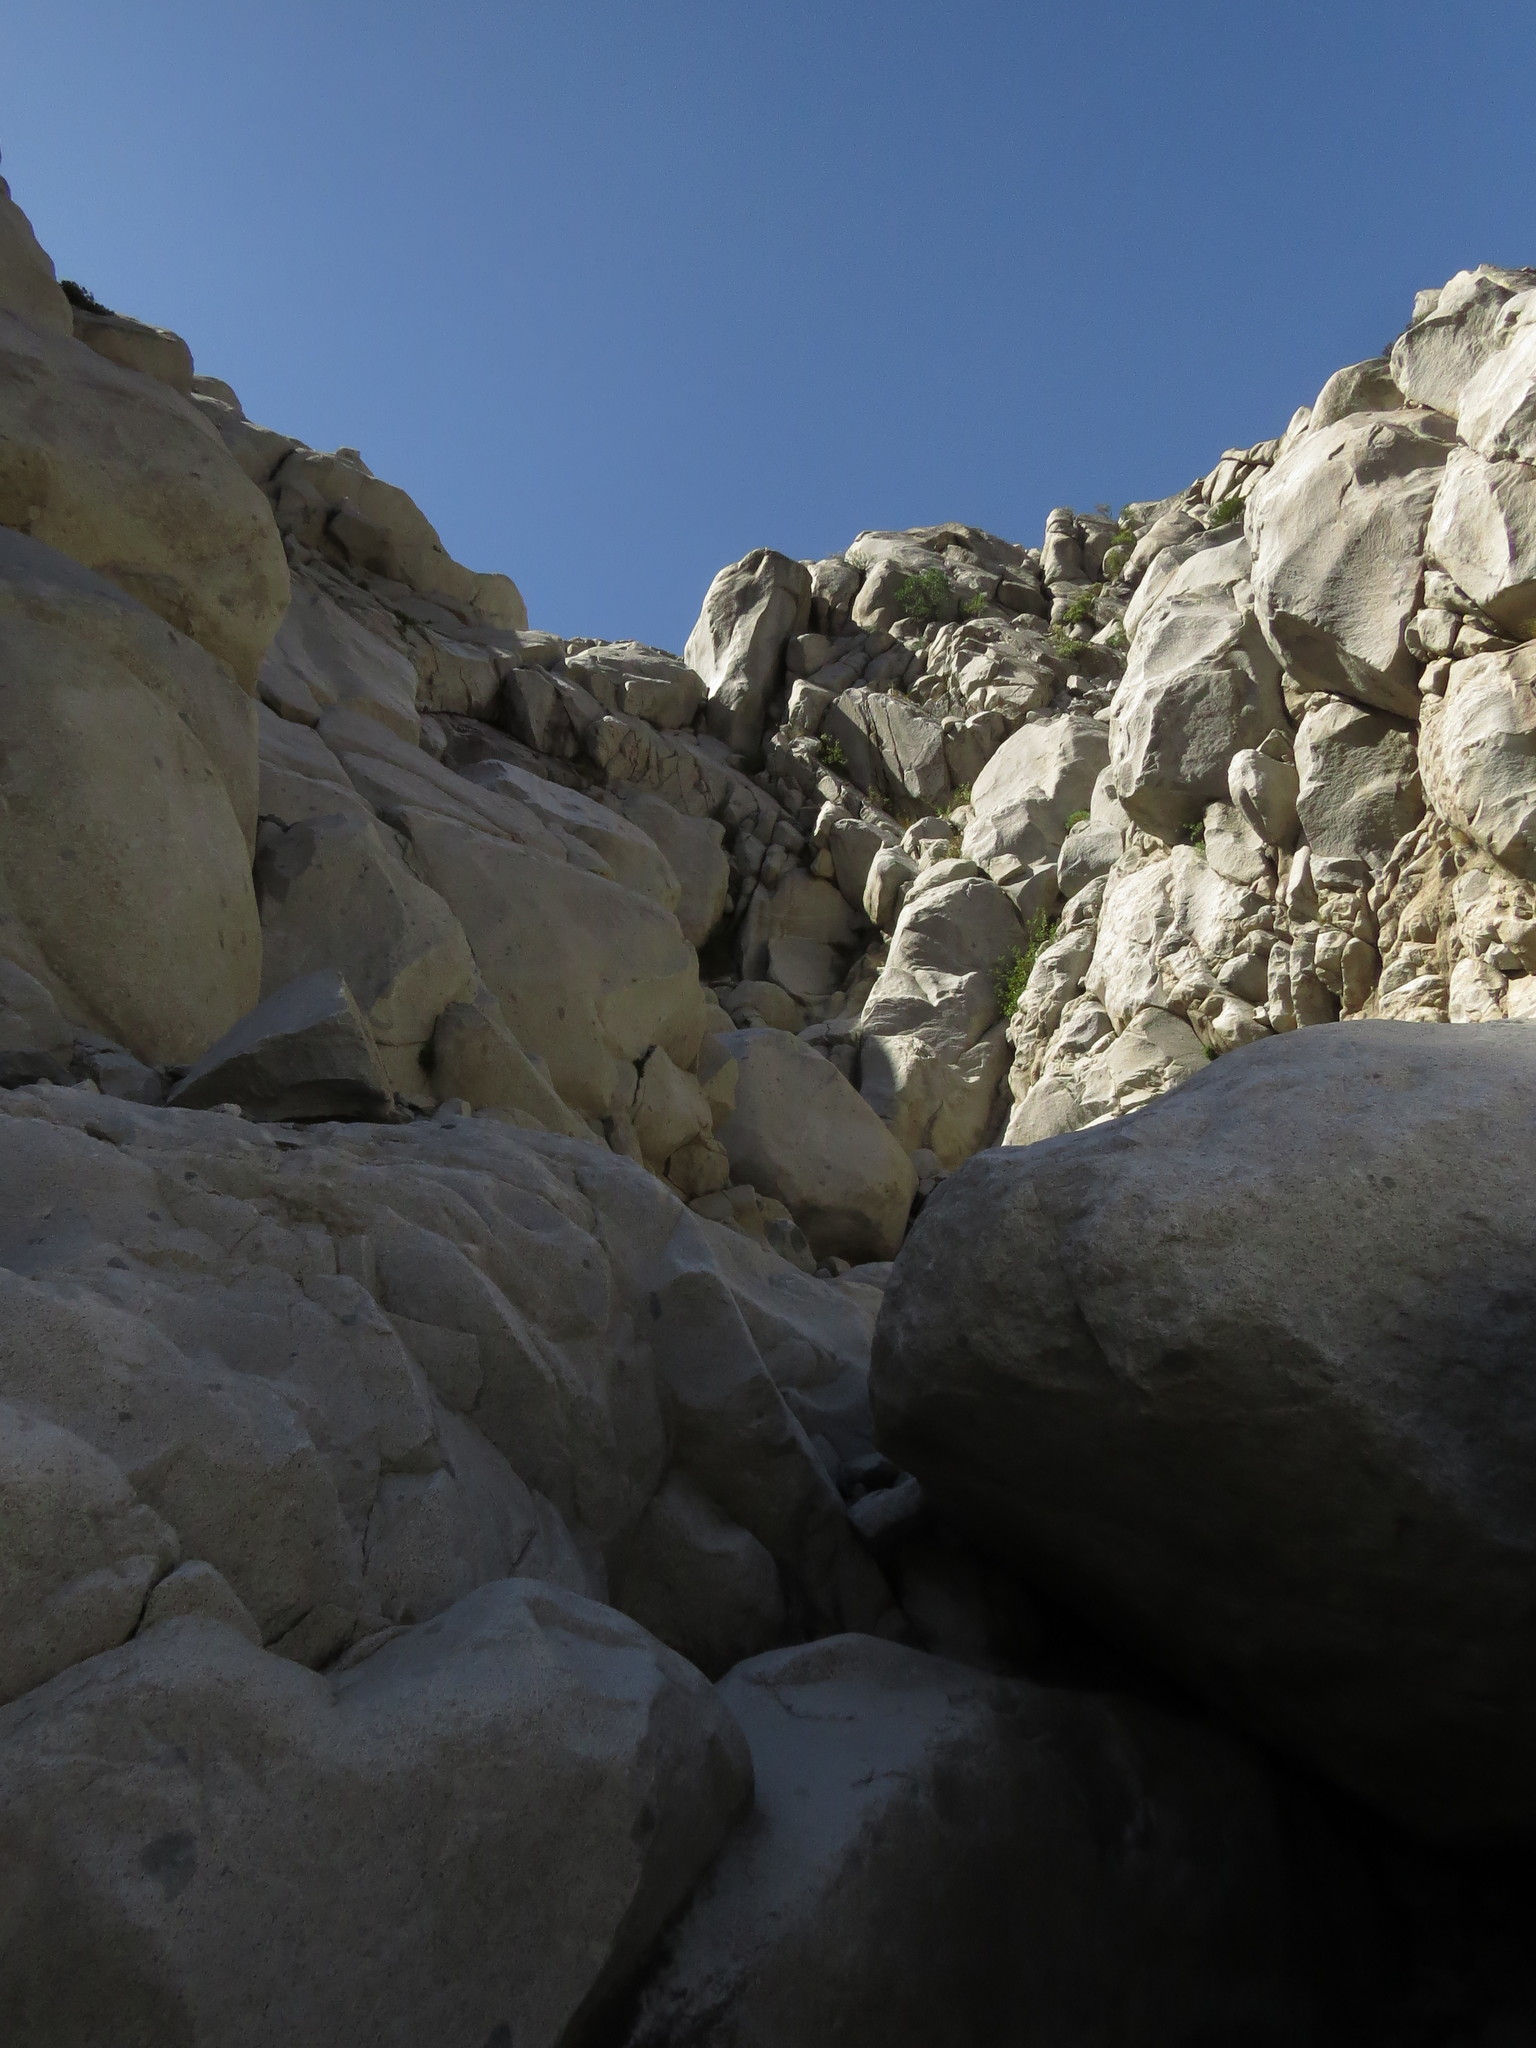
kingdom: Plantae
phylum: Tracheophyta
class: Polypodiopsida
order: Polypodiales
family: Pteridaceae
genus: Cryptogramma
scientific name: Cryptogramma fumariifolia
